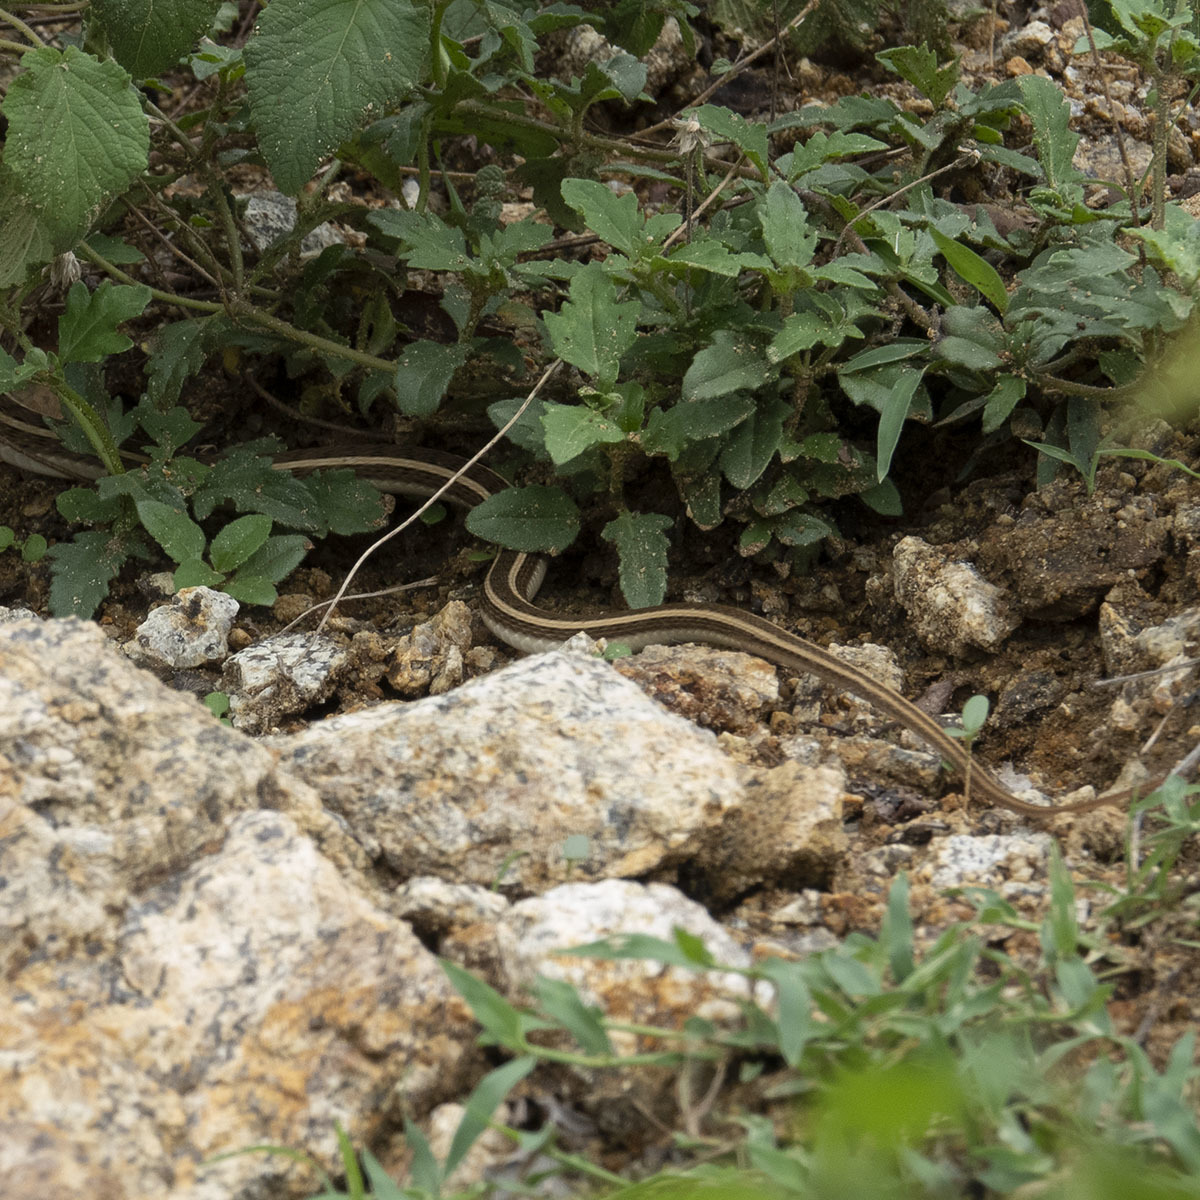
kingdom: Animalia
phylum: Chordata
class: Squamata
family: Colubridae
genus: Amphiesma
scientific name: Amphiesma stolatum
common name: Buff striped keelback
